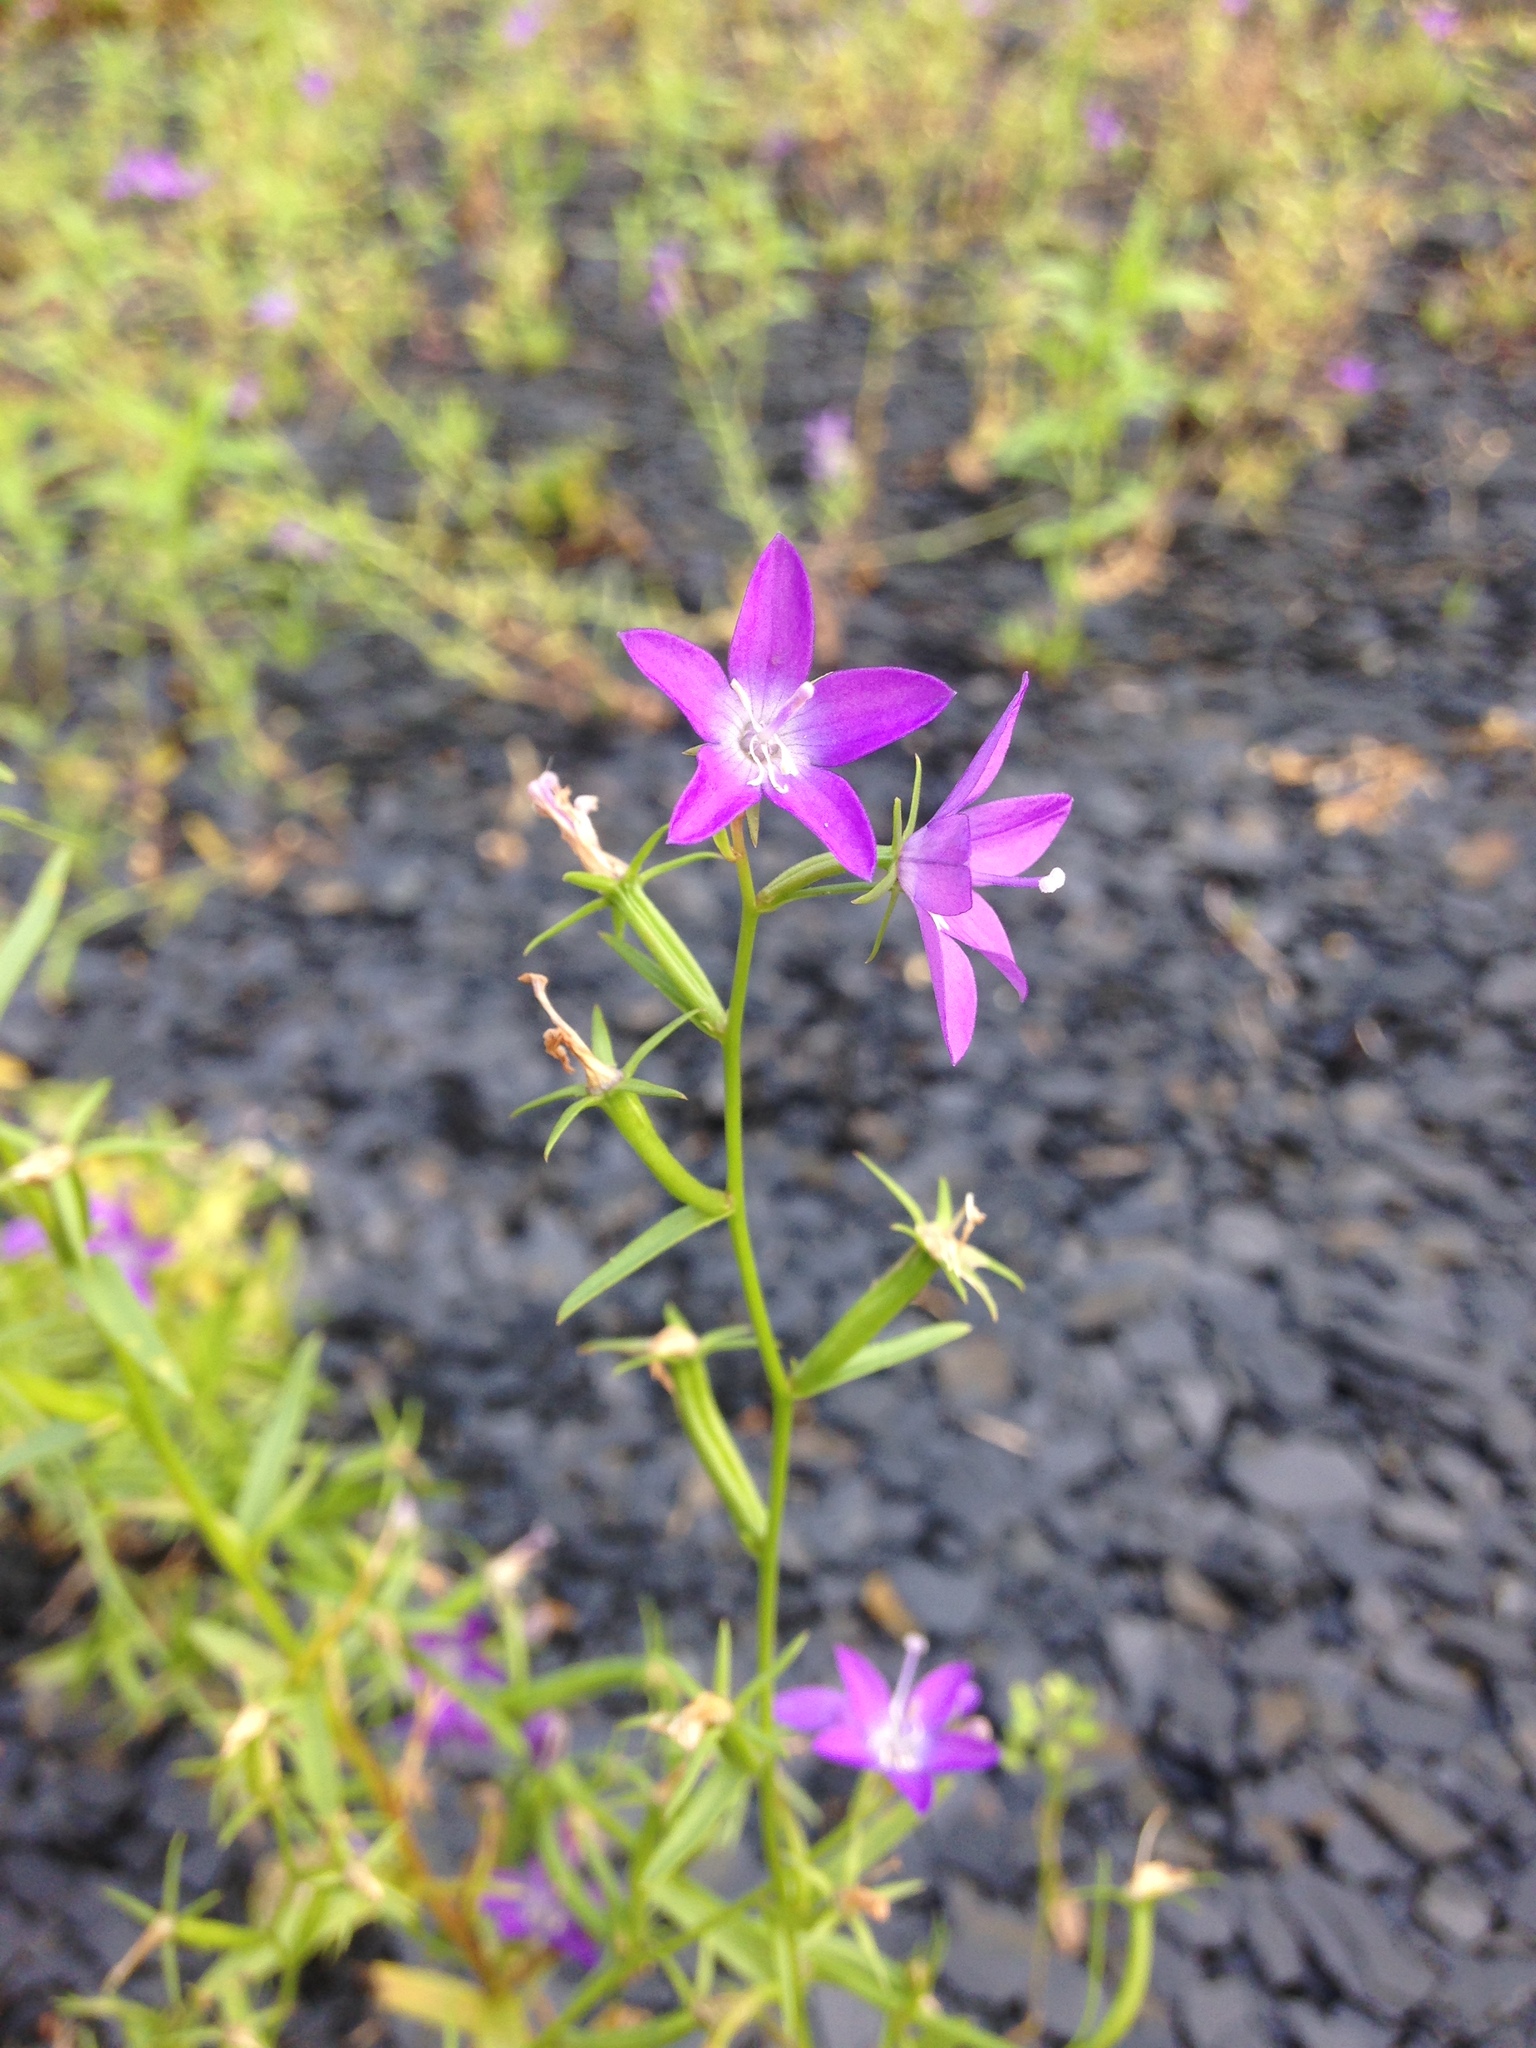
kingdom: Plantae
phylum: Tracheophyta
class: Magnoliopsida
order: Asterales
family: Campanulaceae
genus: Triodanis
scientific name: Triodanis leptocarpa
